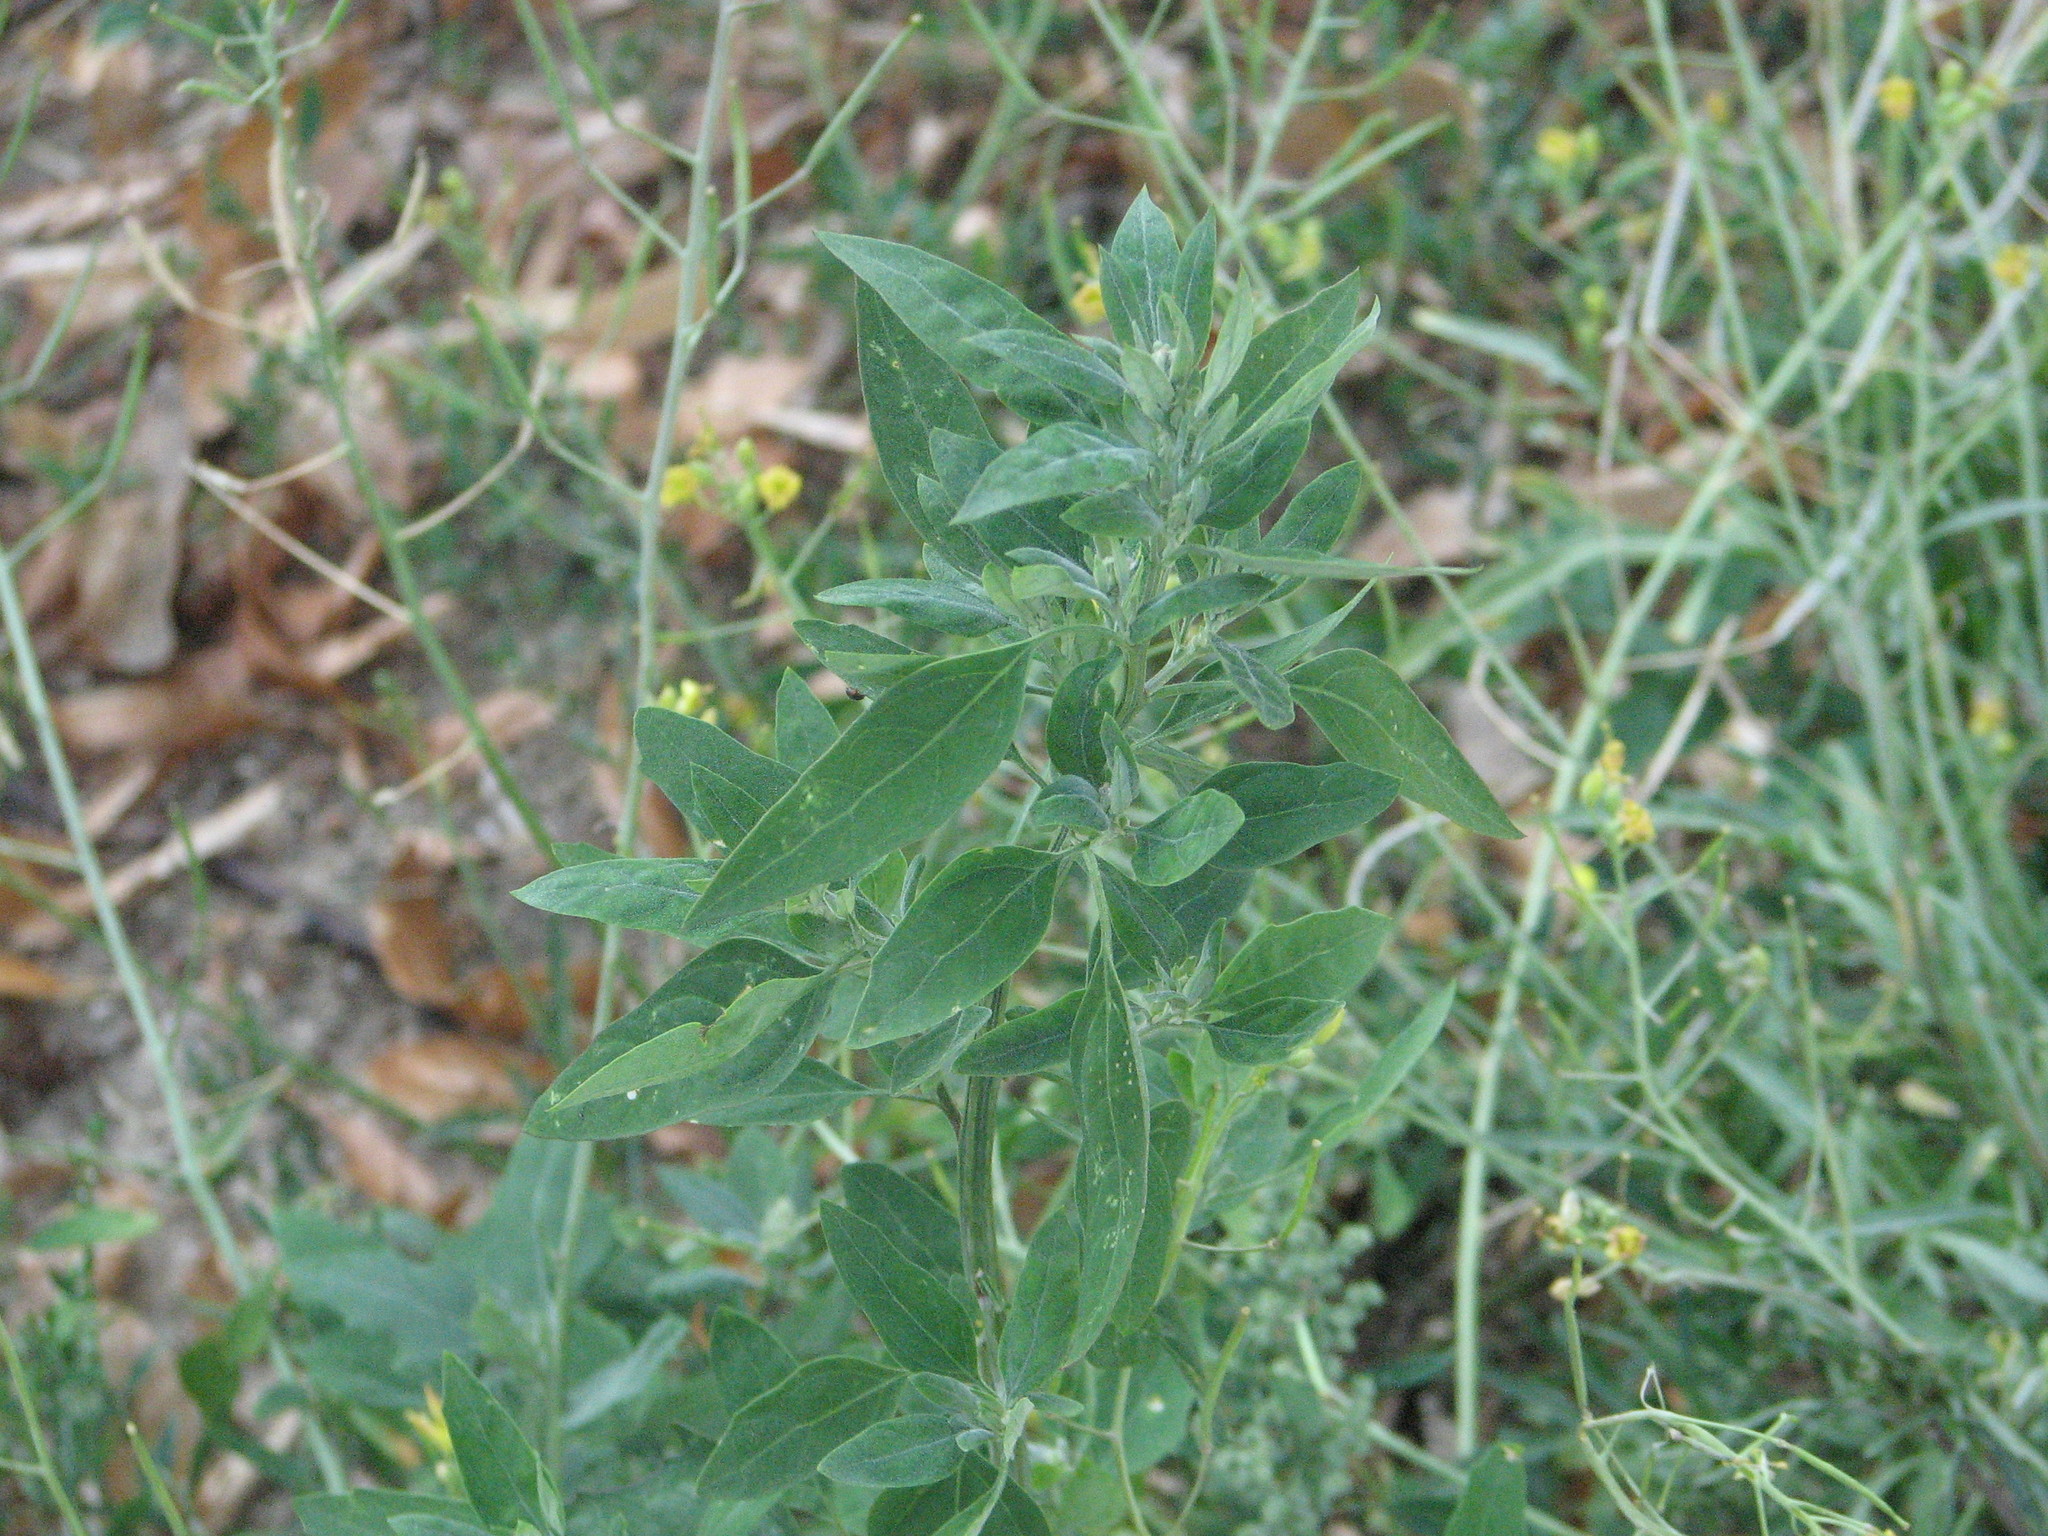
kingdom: Plantae
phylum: Tracheophyta
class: Magnoliopsida
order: Caryophyllales
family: Amaranthaceae
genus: Chenopodium
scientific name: Chenopodium album
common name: Fat-hen
